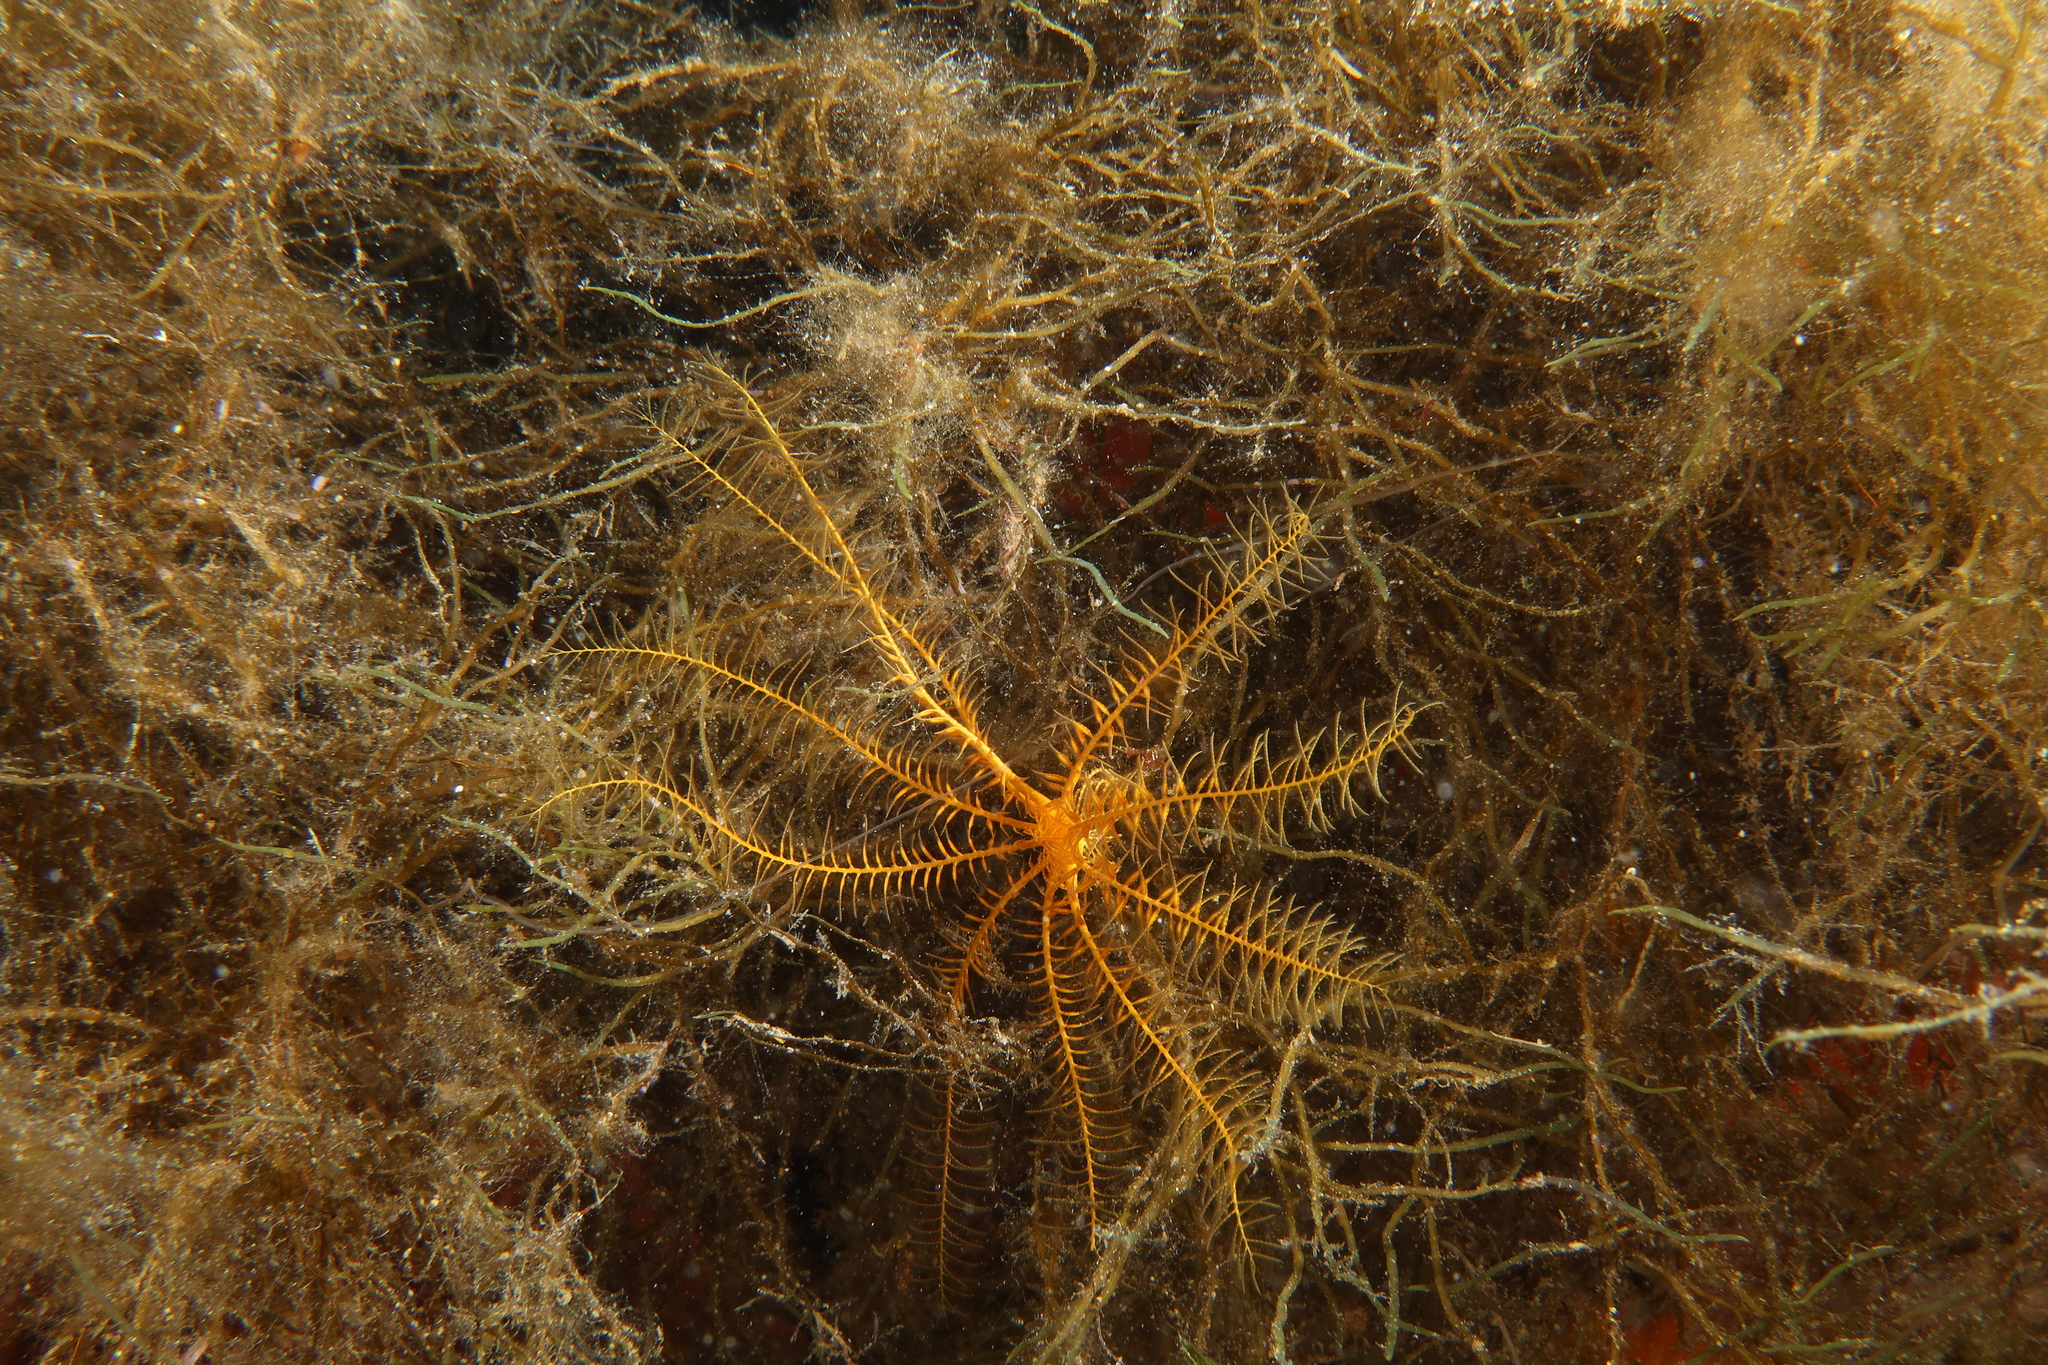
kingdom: Animalia
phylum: Echinodermata
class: Crinoidea
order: Comatulida
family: Antedonidae
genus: Antedon
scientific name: Antedon mediterranea
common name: Feather star
